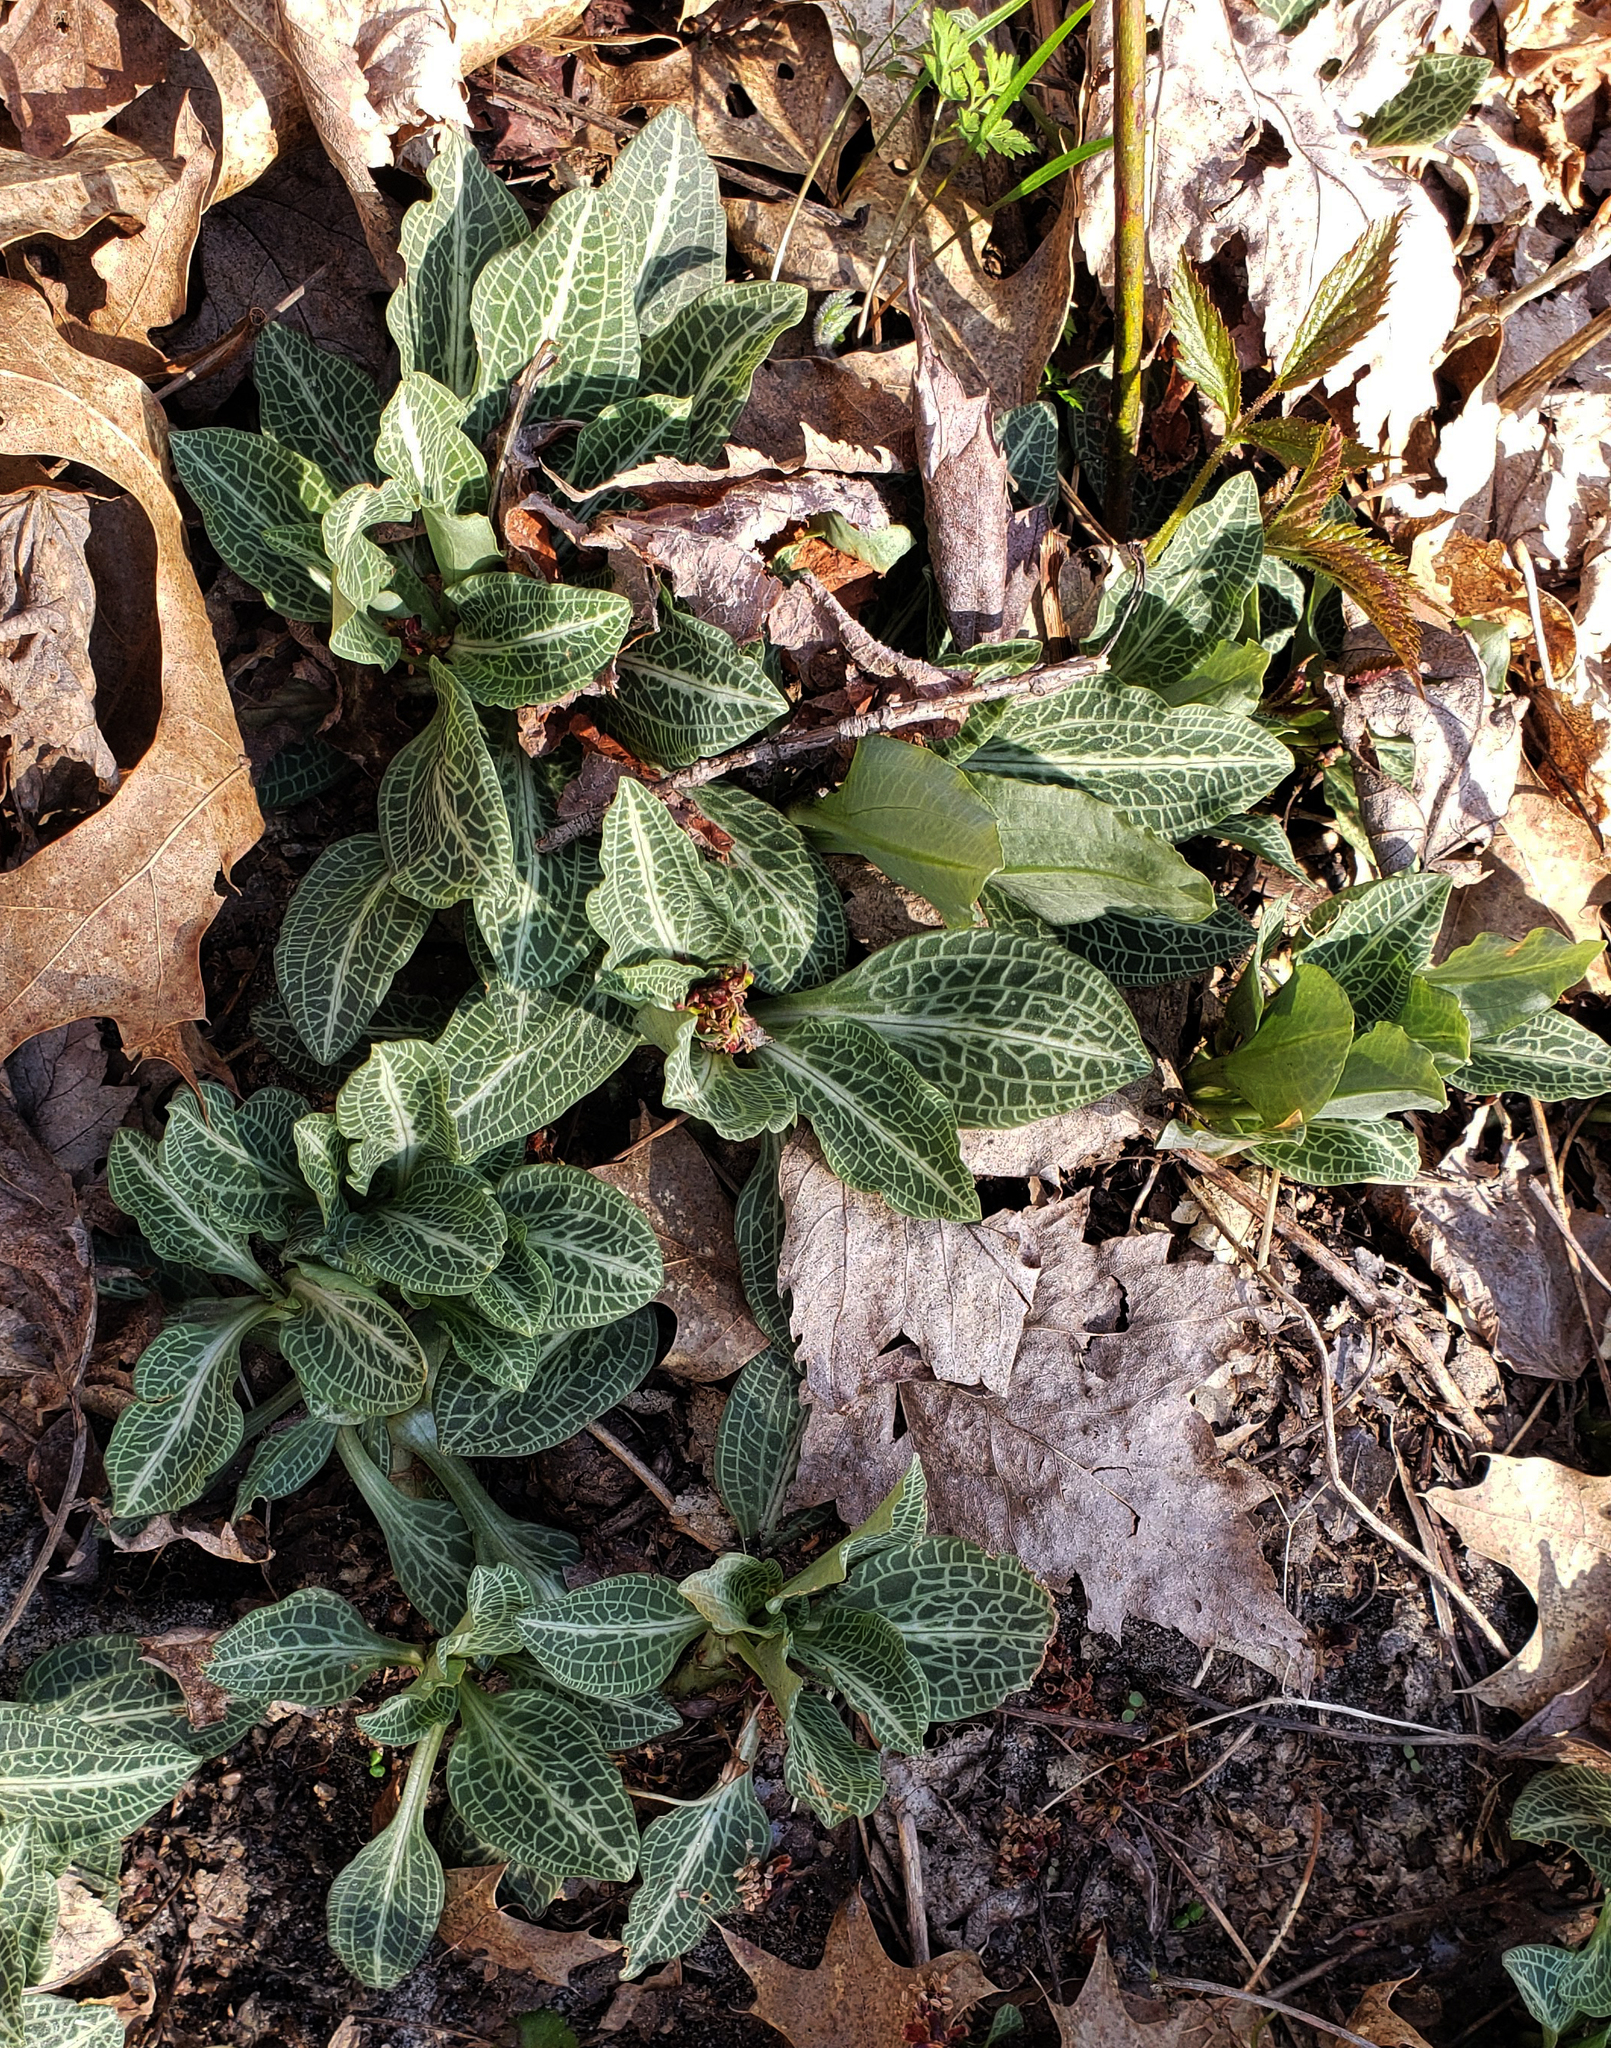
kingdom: Plantae
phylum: Tracheophyta
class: Liliopsida
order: Asparagales
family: Orchidaceae
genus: Goodyera
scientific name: Goodyera pubescens
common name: Downy rattlesnake-plantain
